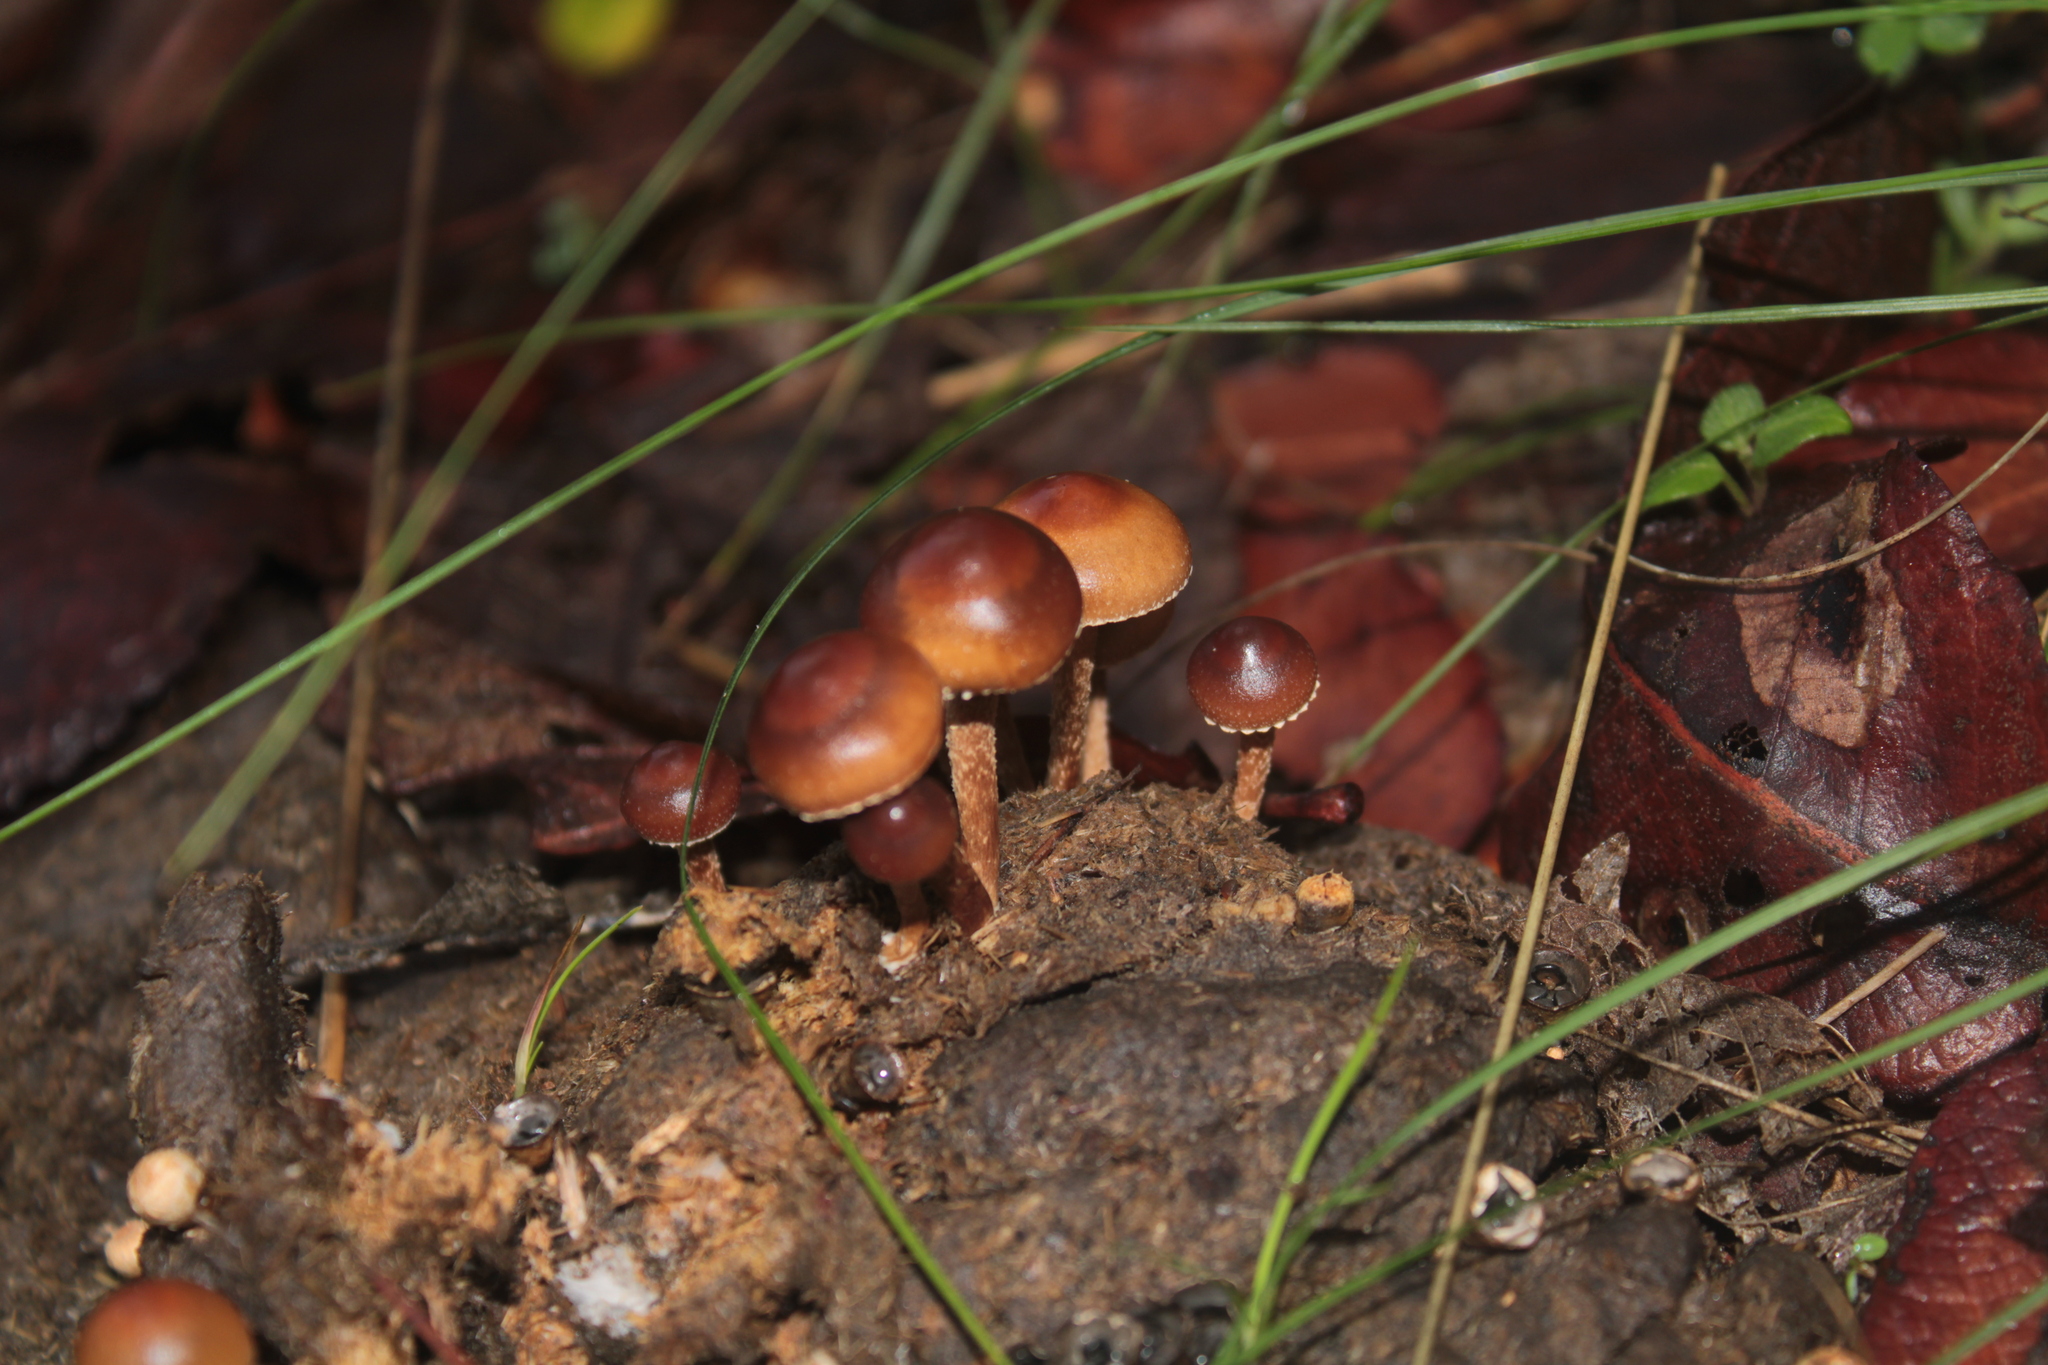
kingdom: Fungi
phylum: Basidiomycota
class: Agaricomycetes
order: Agaricales
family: Strophariaceae
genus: Deconica
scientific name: Deconica coprophila
